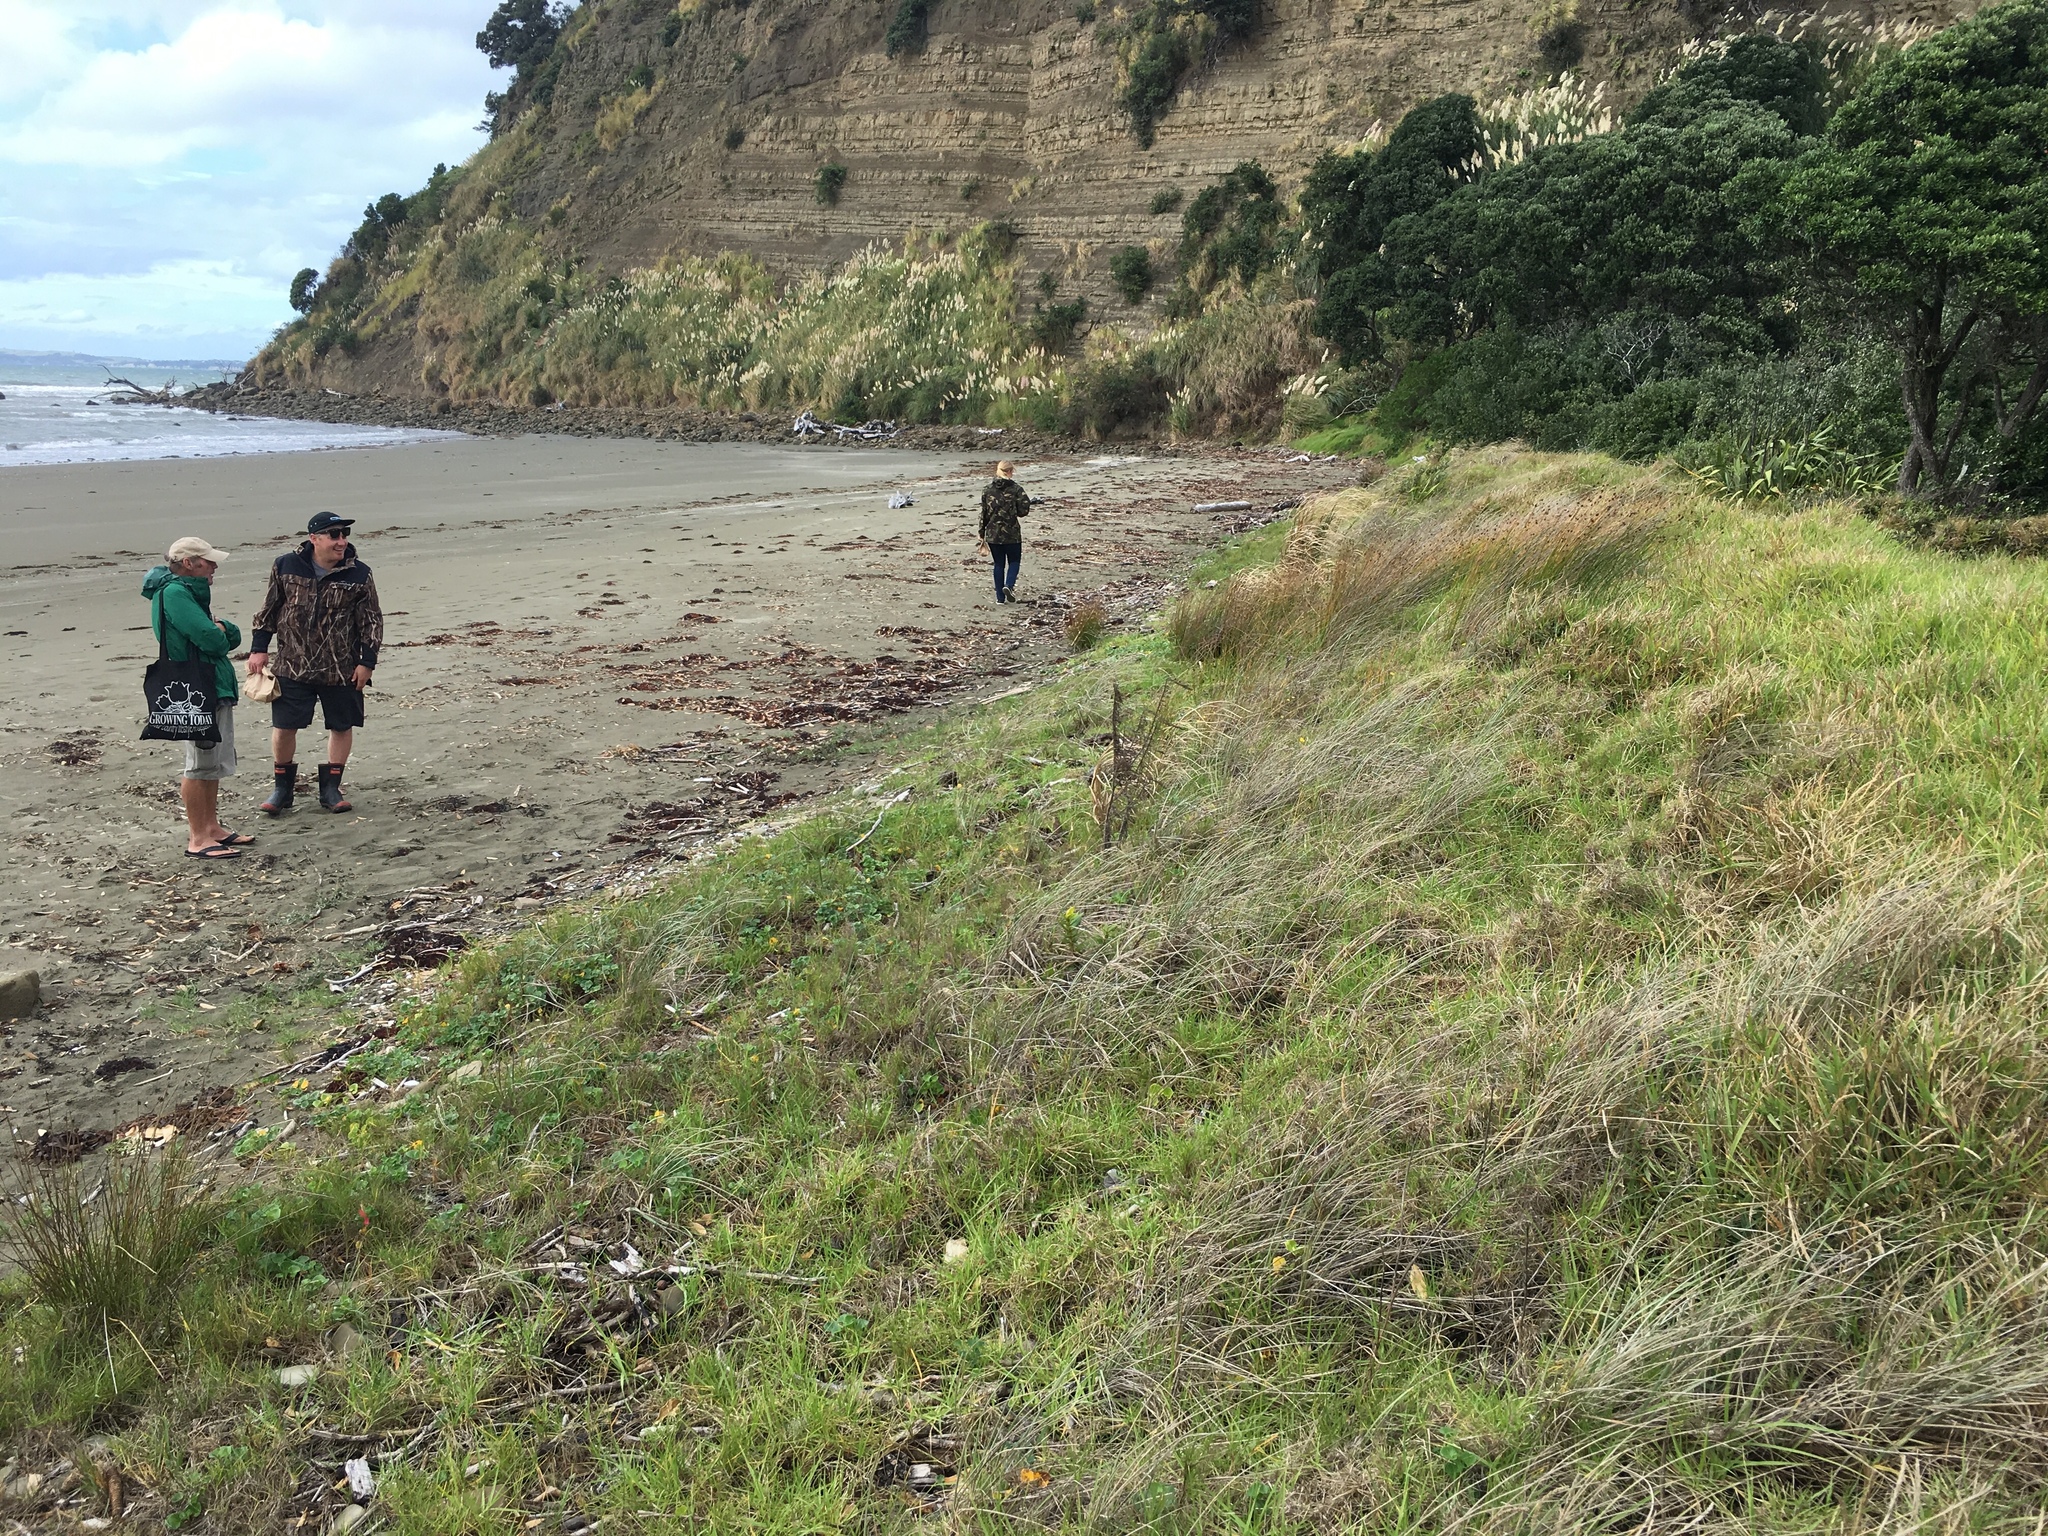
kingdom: Plantae
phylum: Tracheophyta
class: Liliopsida
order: Poales
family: Poaceae
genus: Spinifex
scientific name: Spinifex sericeus
